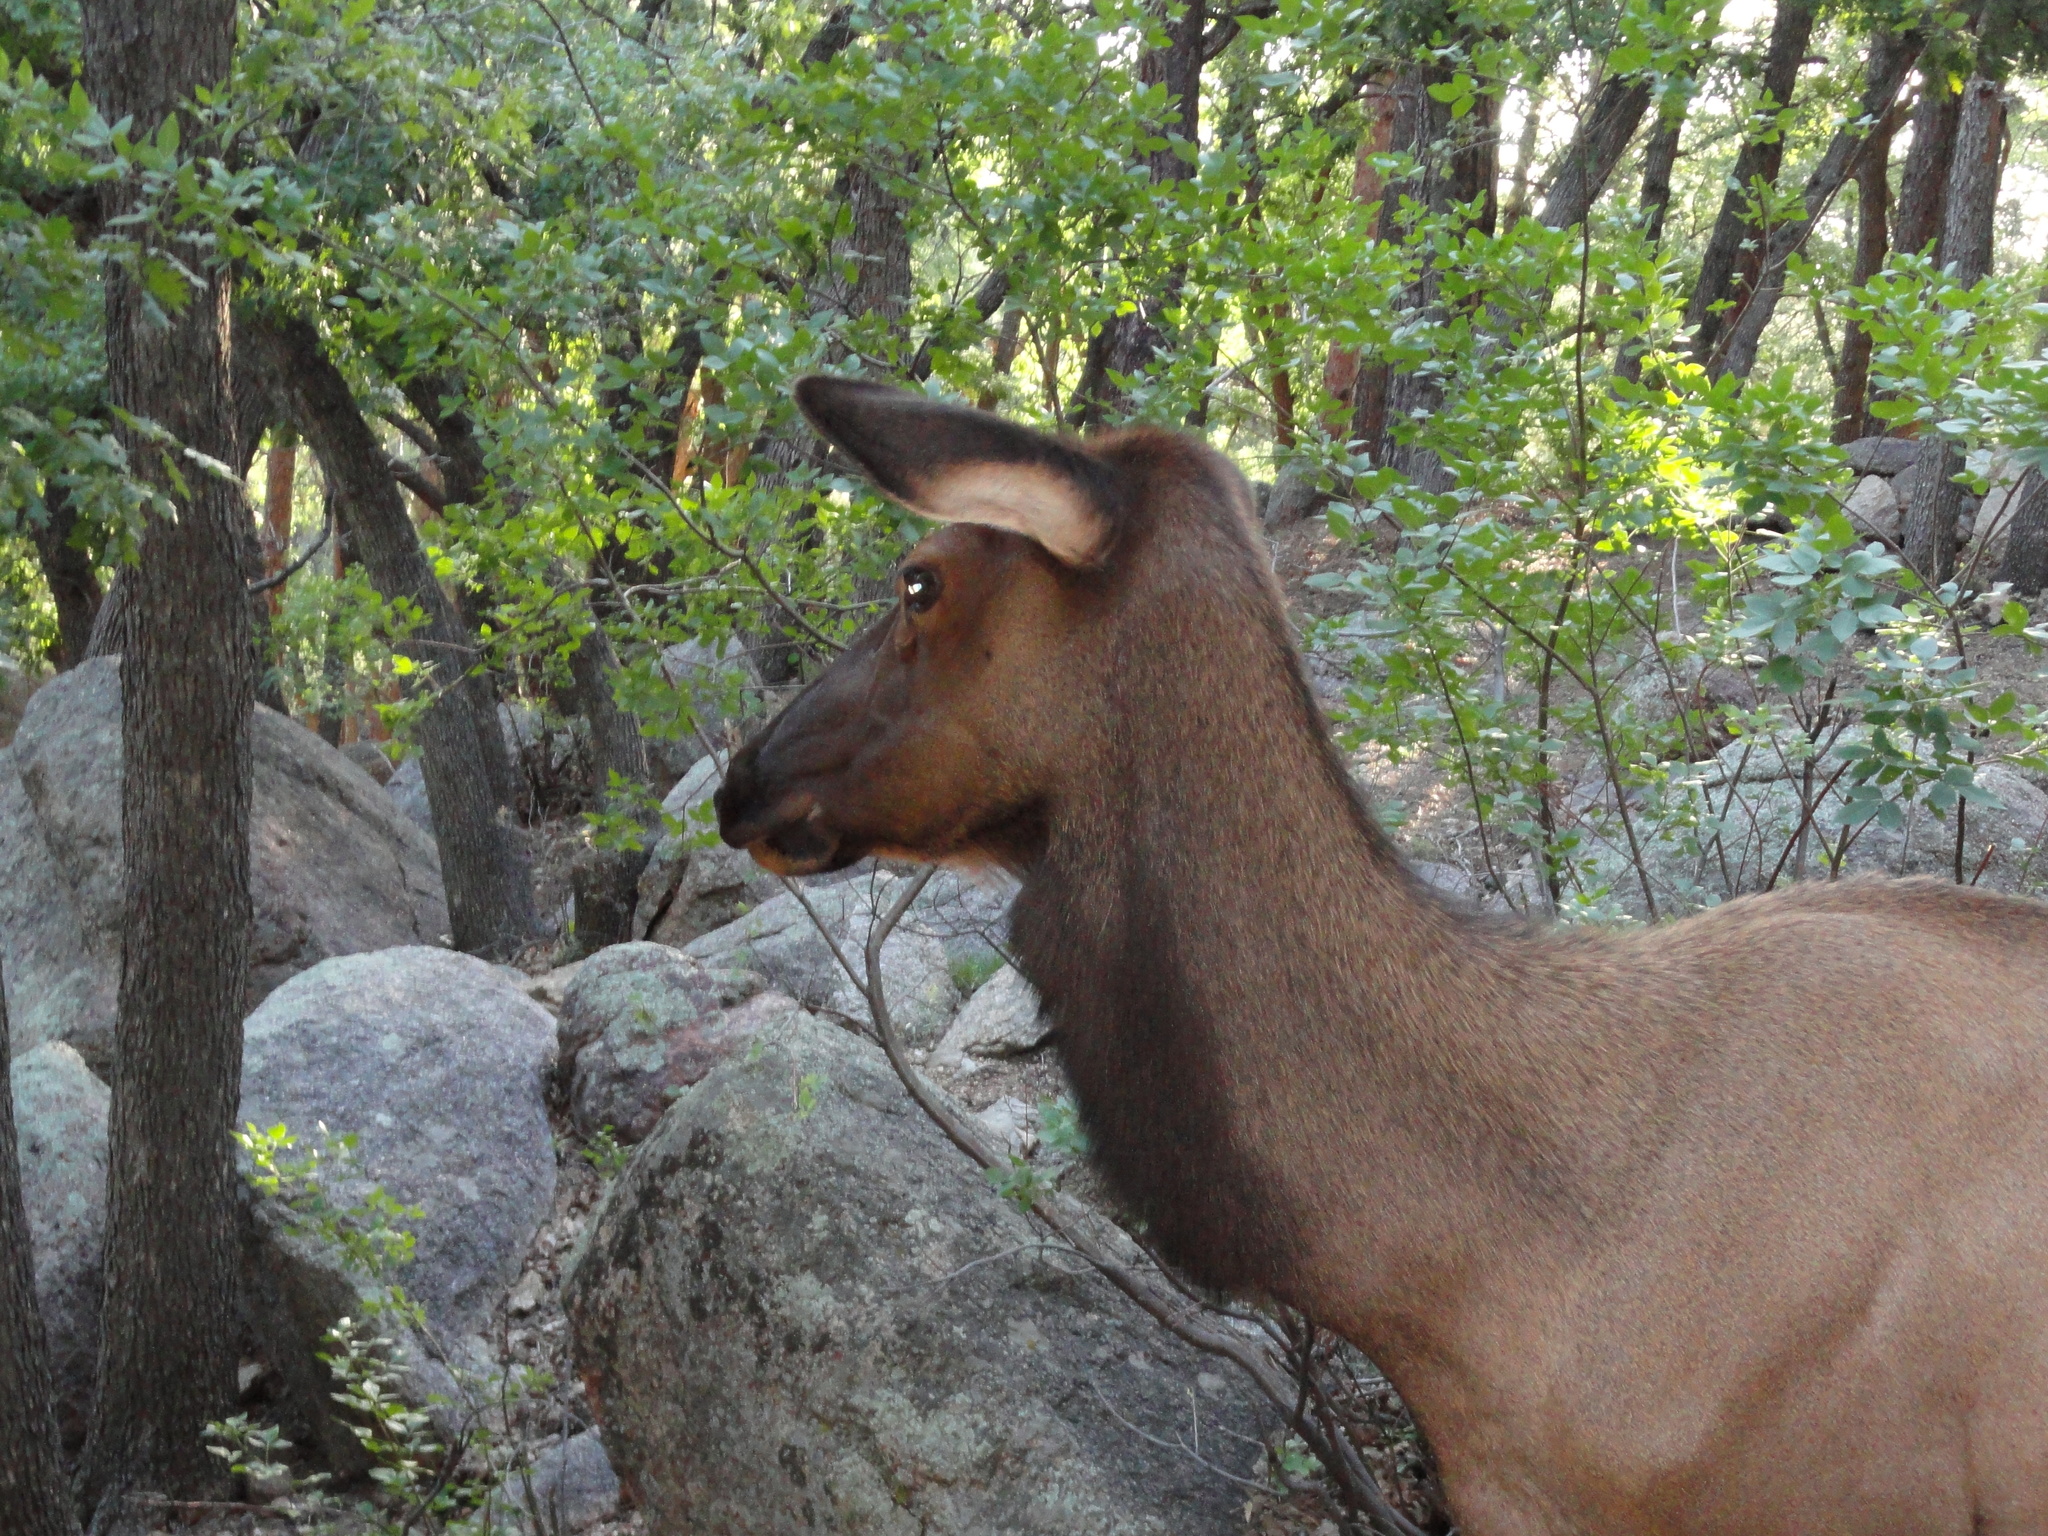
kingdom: Animalia
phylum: Chordata
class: Mammalia
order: Artiodactyla
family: Cervidae
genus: Cervus
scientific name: Cervus elaphus
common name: Red deer
